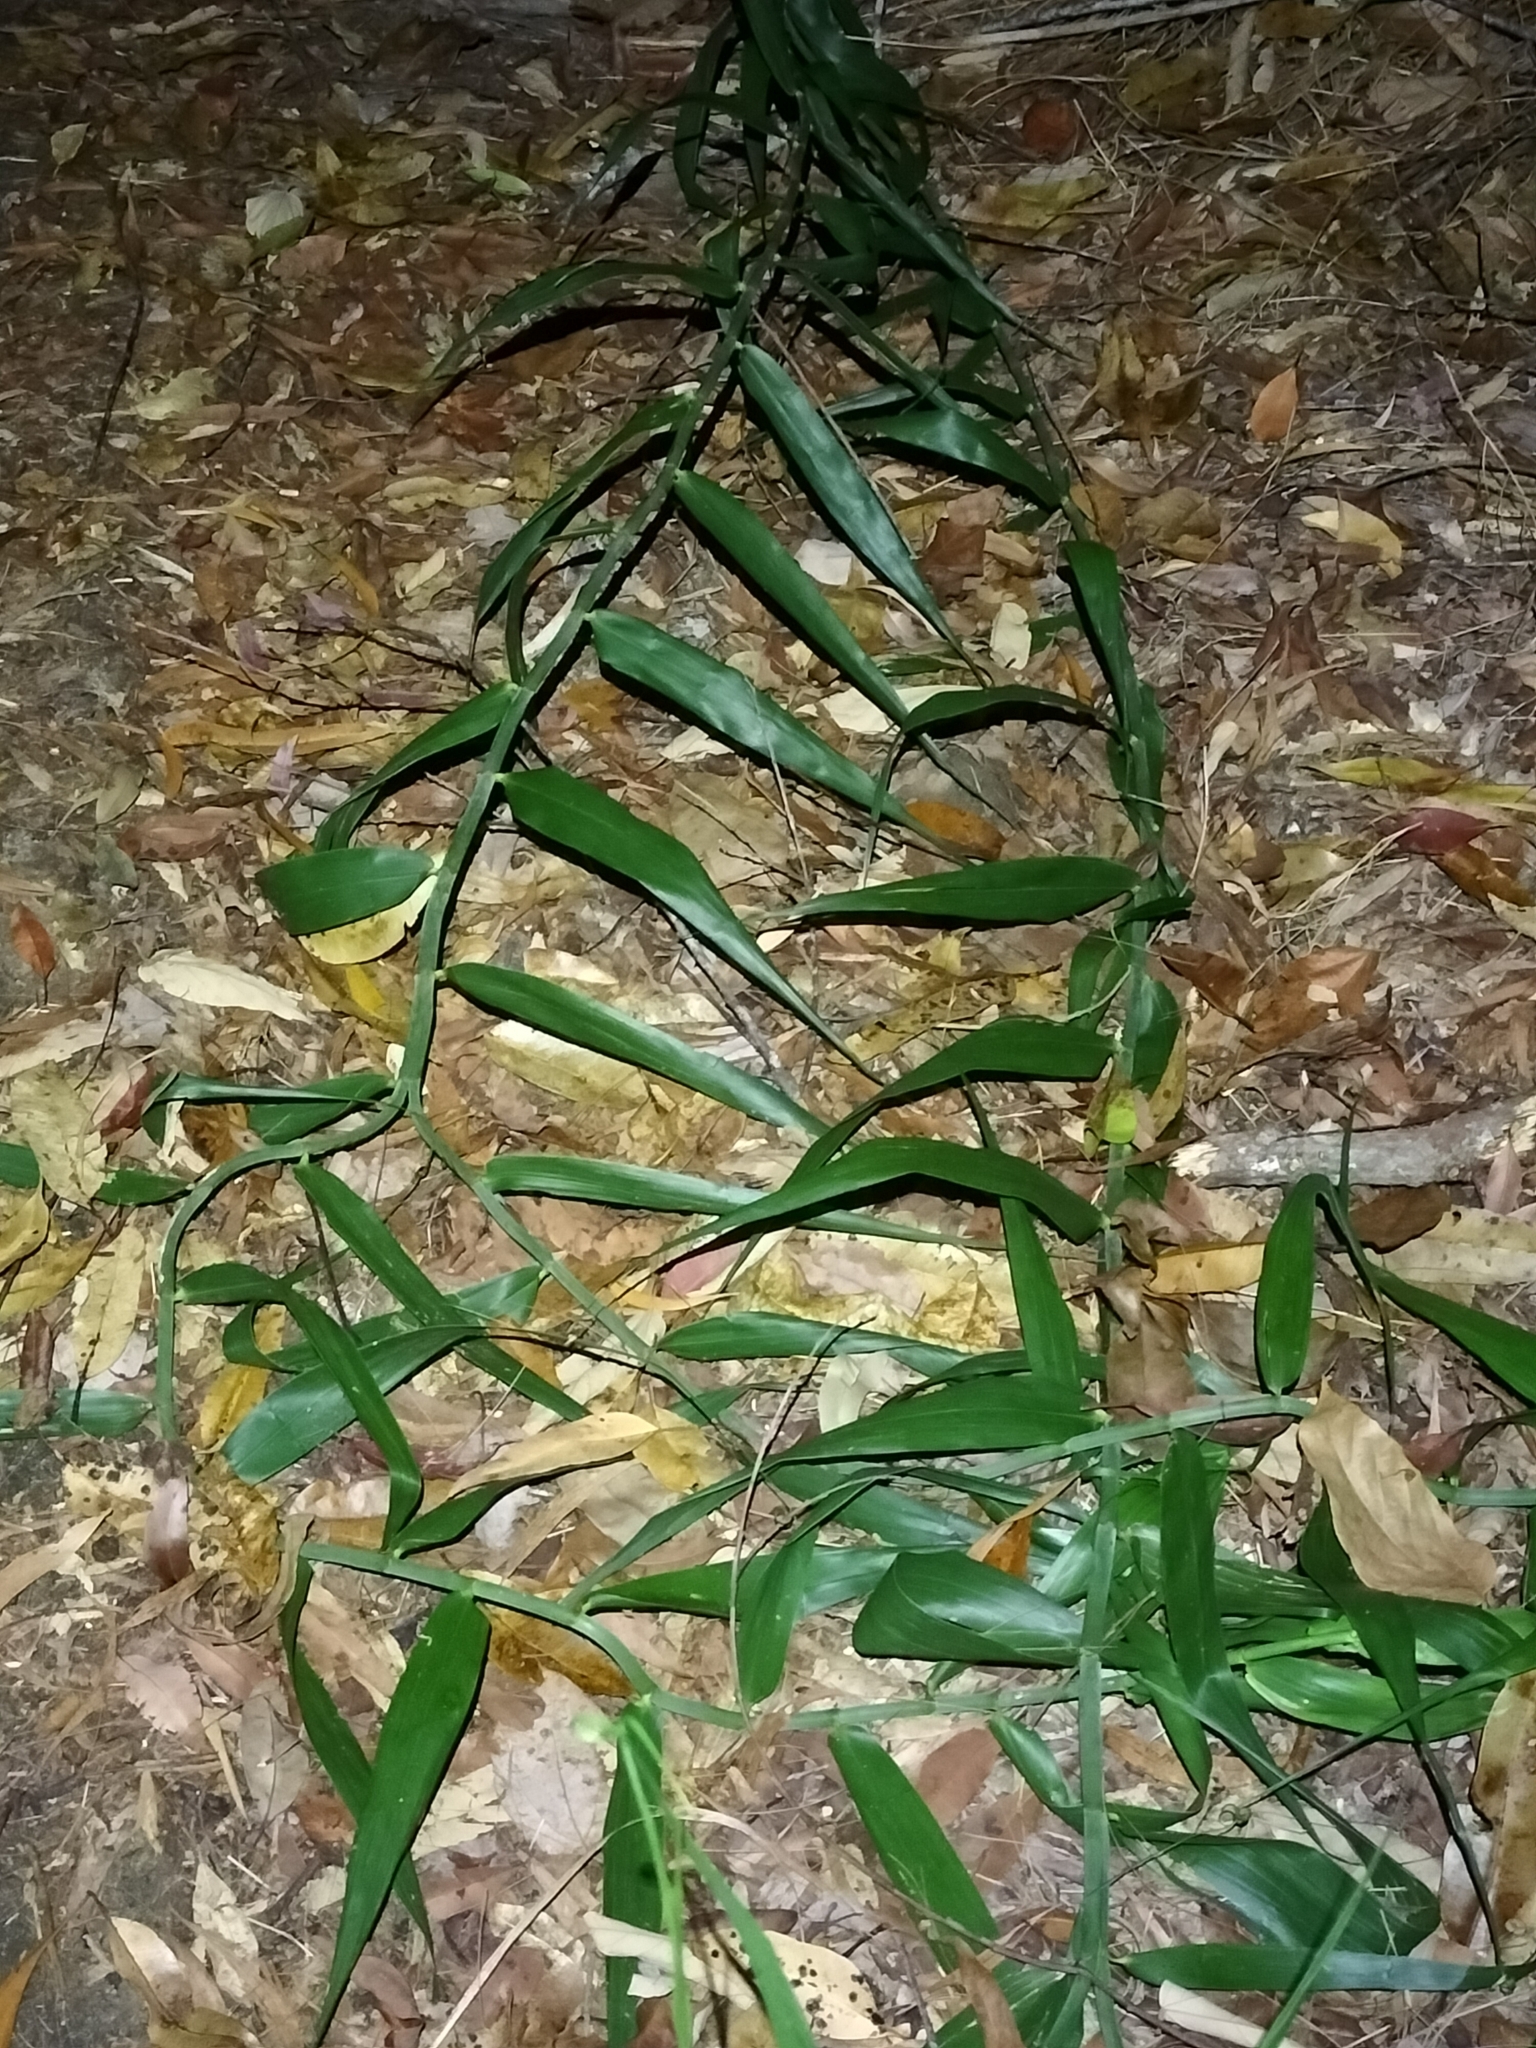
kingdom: Plantae
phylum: Tracheophyta
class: Liliopsida
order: Poales
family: Flagellariaceae
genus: Flagellaria
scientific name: Flagellaria indica
